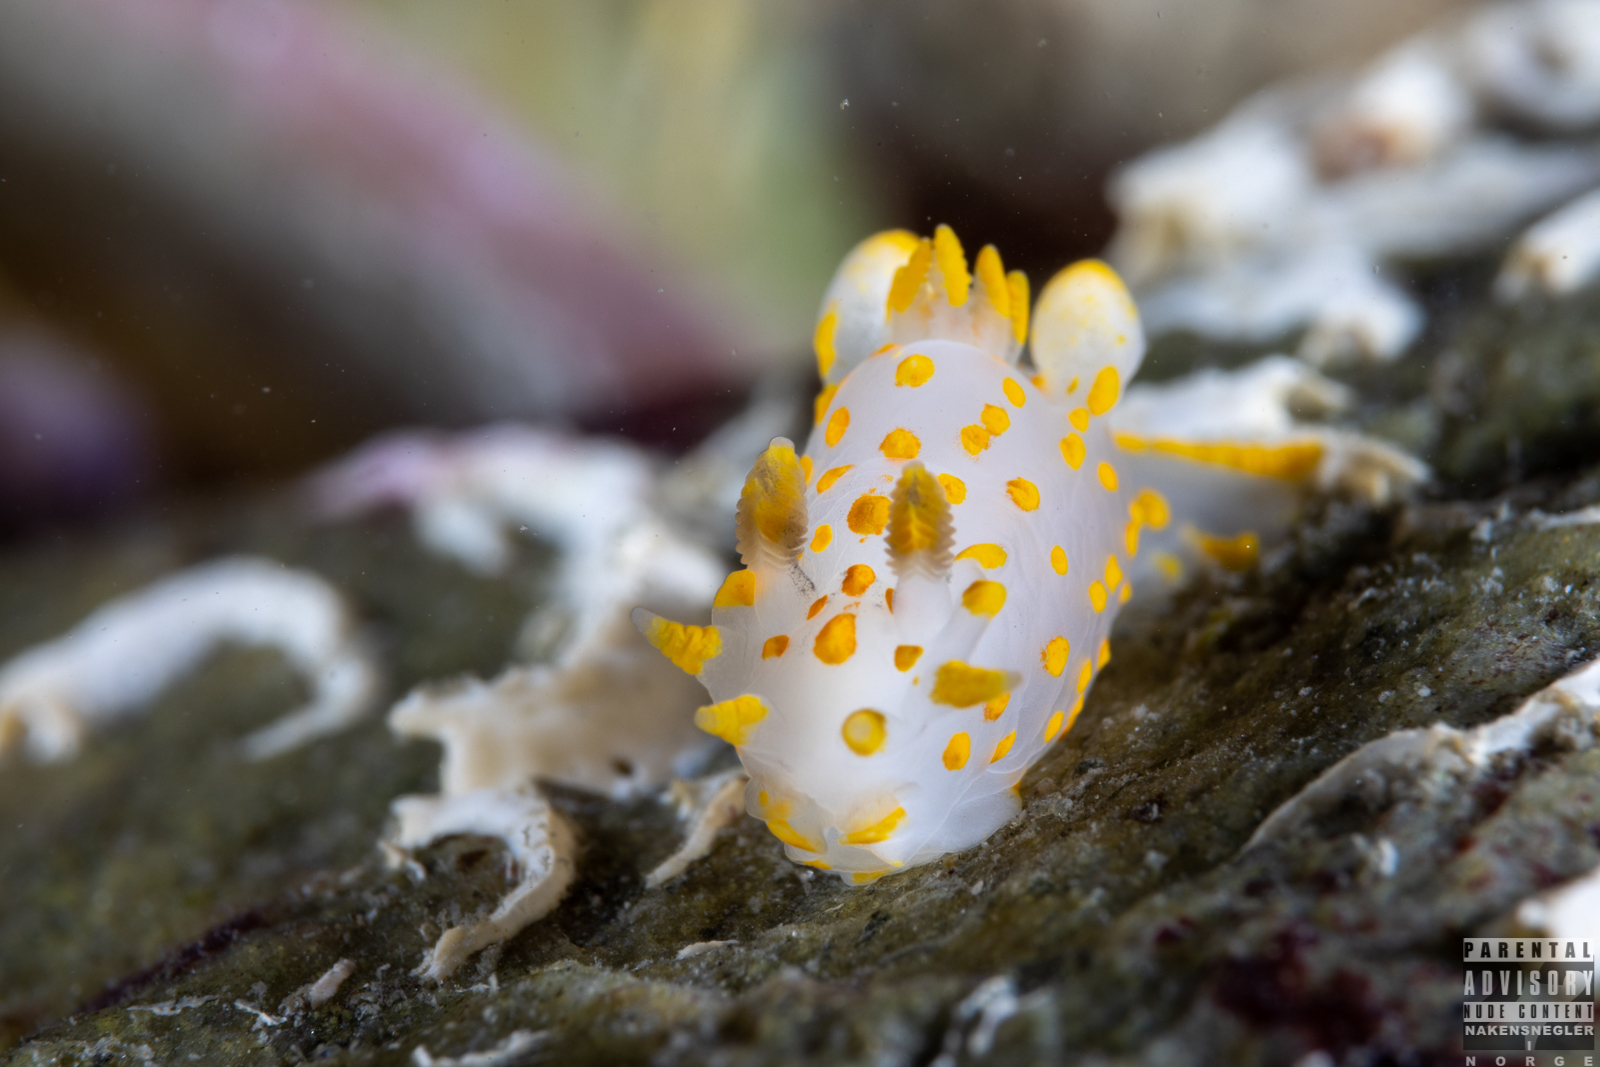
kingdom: Animalia
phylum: Mollusca
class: Gastropoda
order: Nudibranchia
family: Polyceridae
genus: Polycera
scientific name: Polycera quadrilineata
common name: Four-striped polycera
